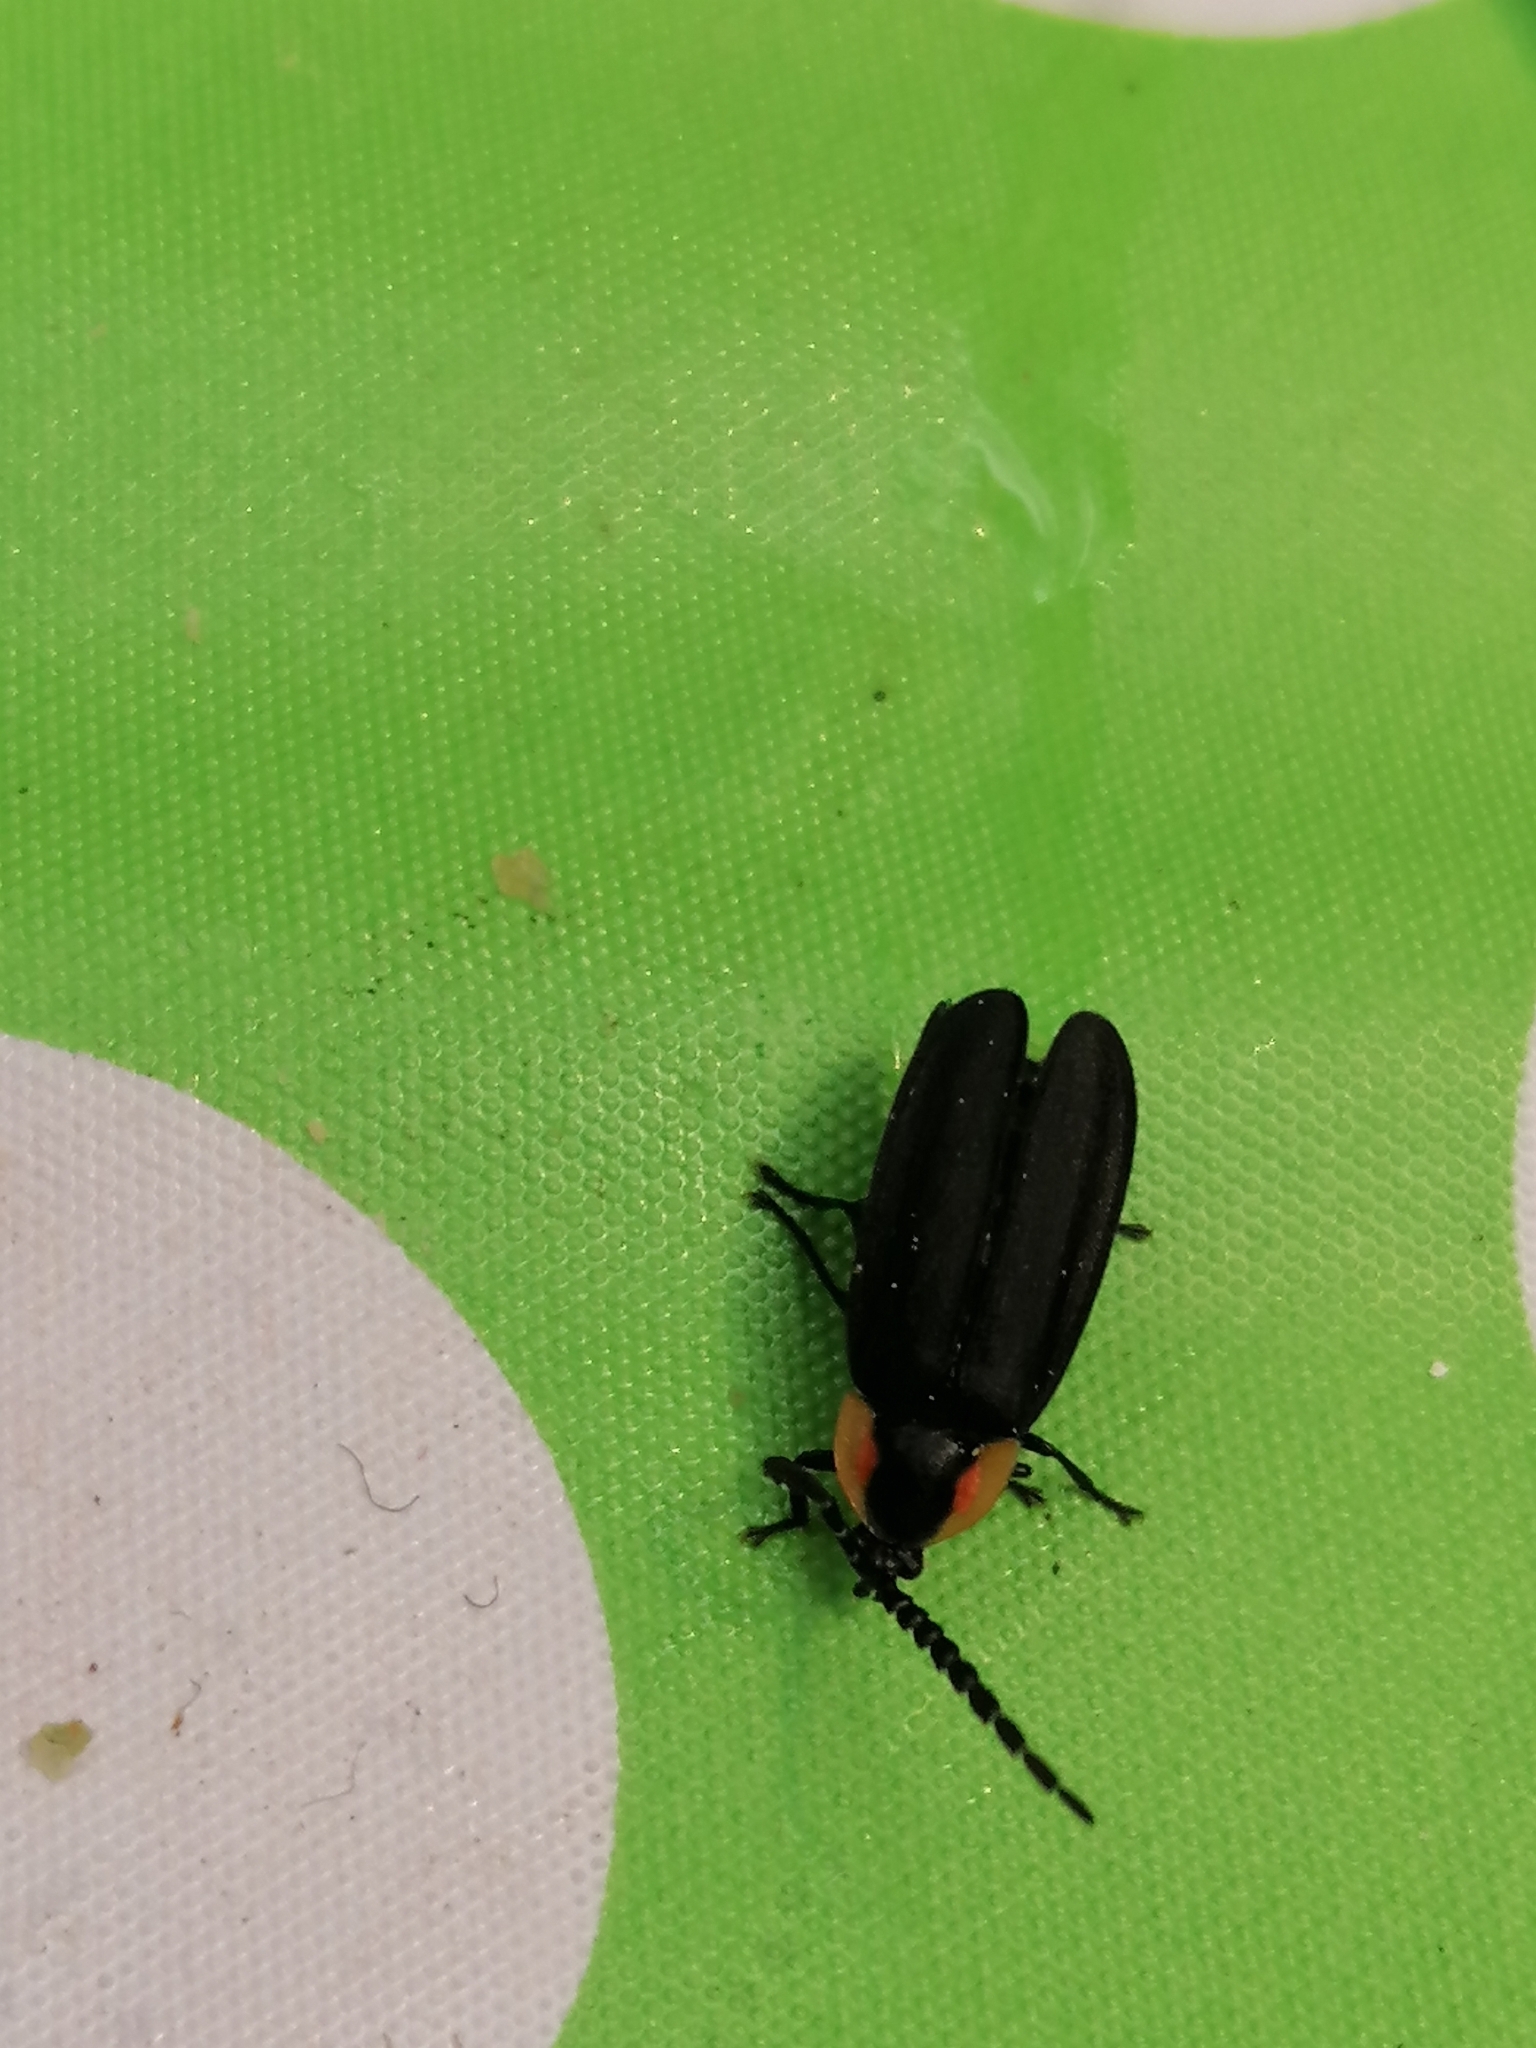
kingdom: Animalia
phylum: Arthropoda
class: Insecta
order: Coleoptera
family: Lampyridae
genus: Lucidota
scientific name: Lucidota atra
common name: Black firefly
